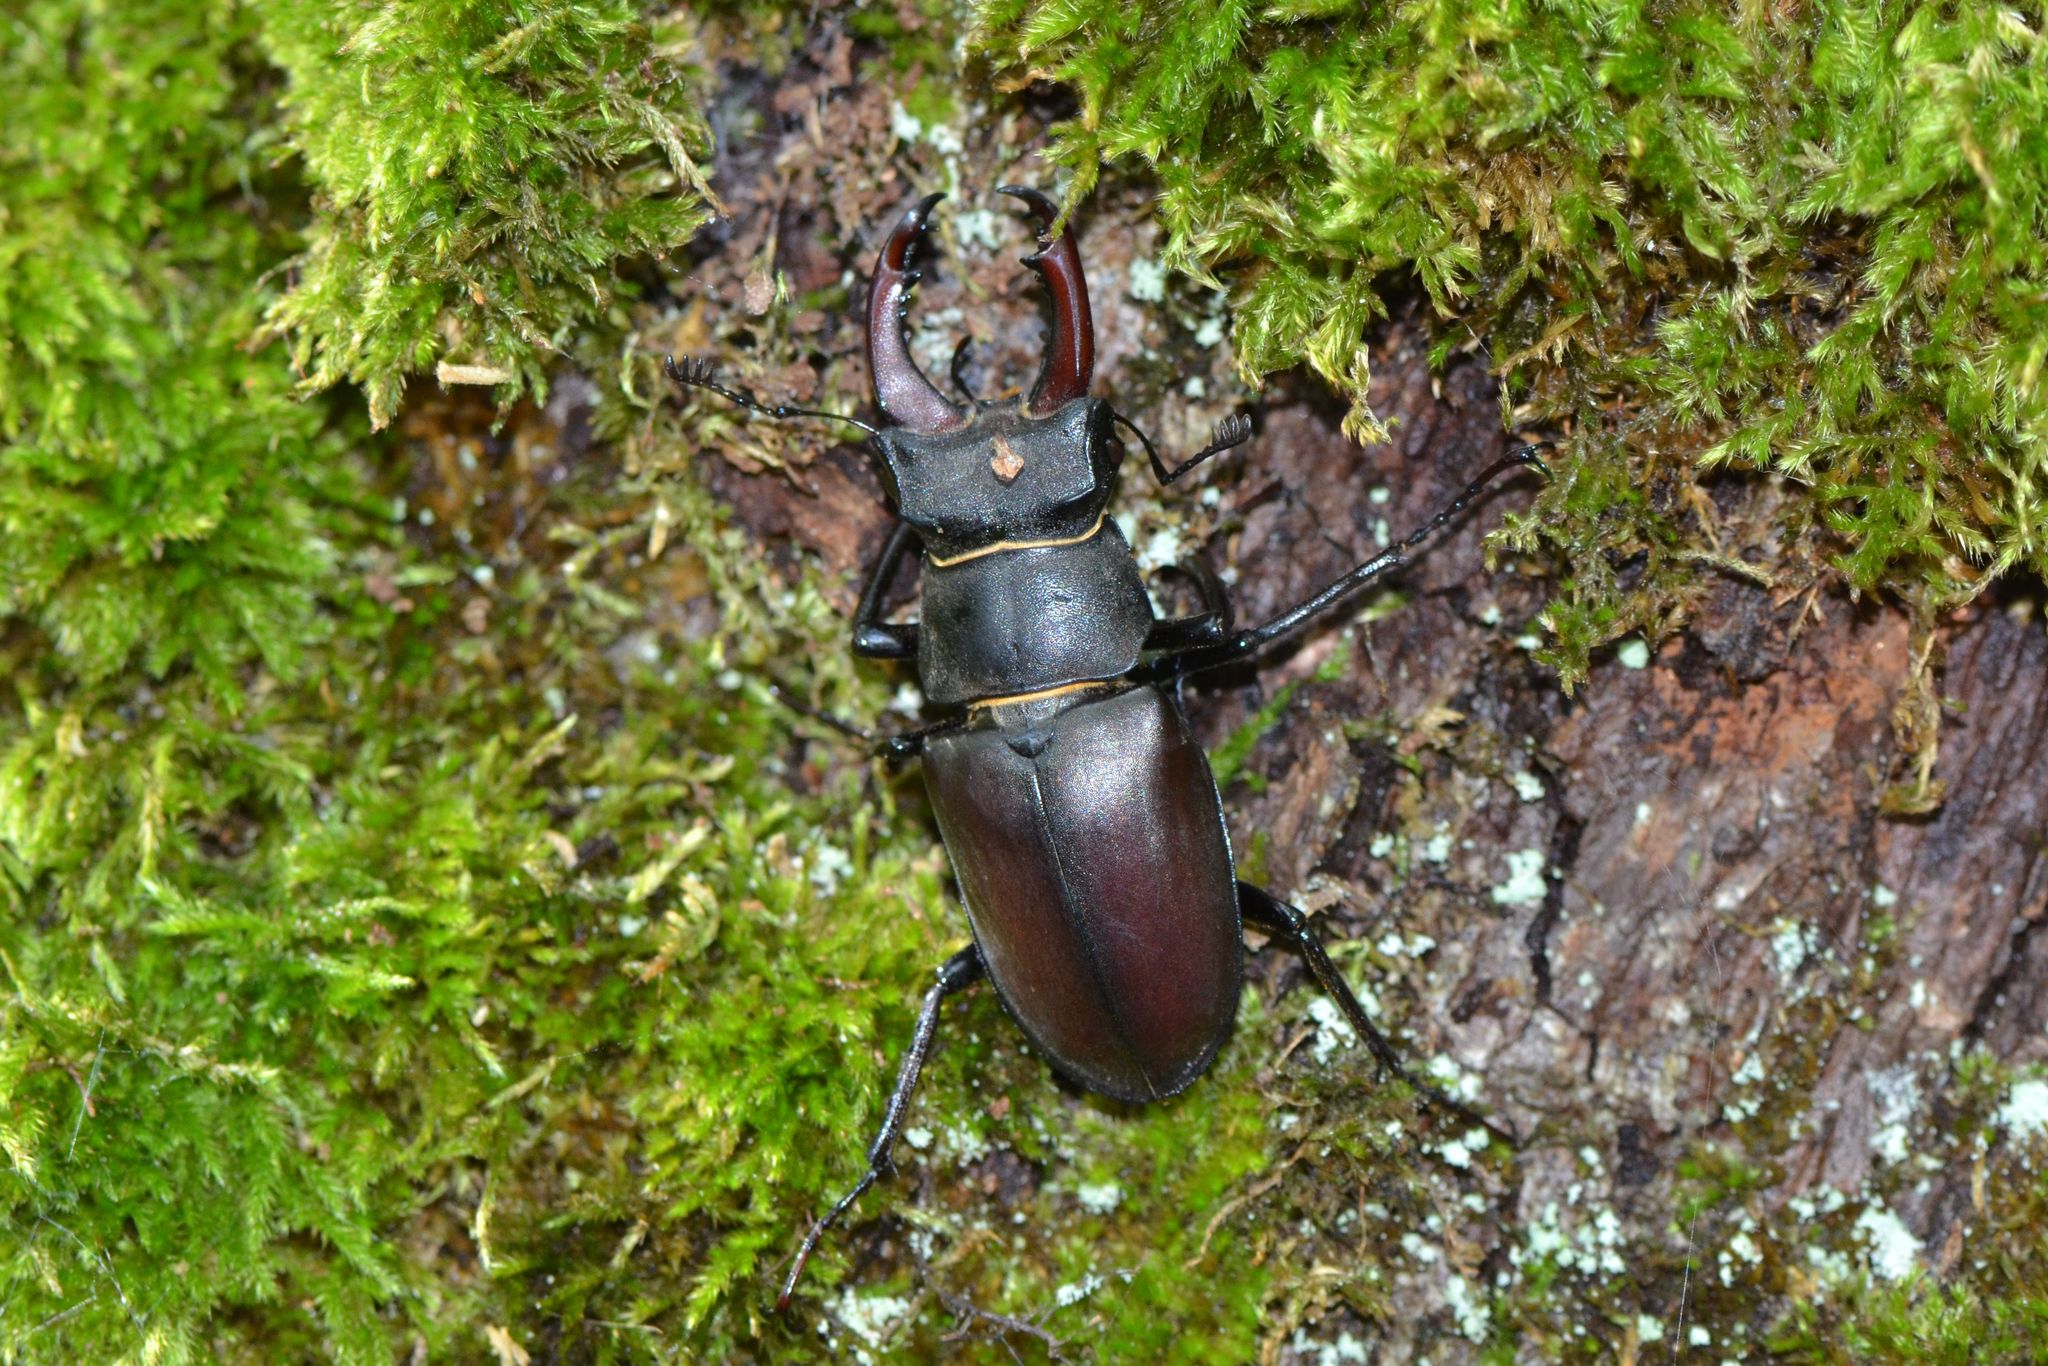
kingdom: Animalia
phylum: Arthropoda
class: Insecta
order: Coleoptera
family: Lucanidae
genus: Lucanus
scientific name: Lucanus cervus
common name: Stag beetle
